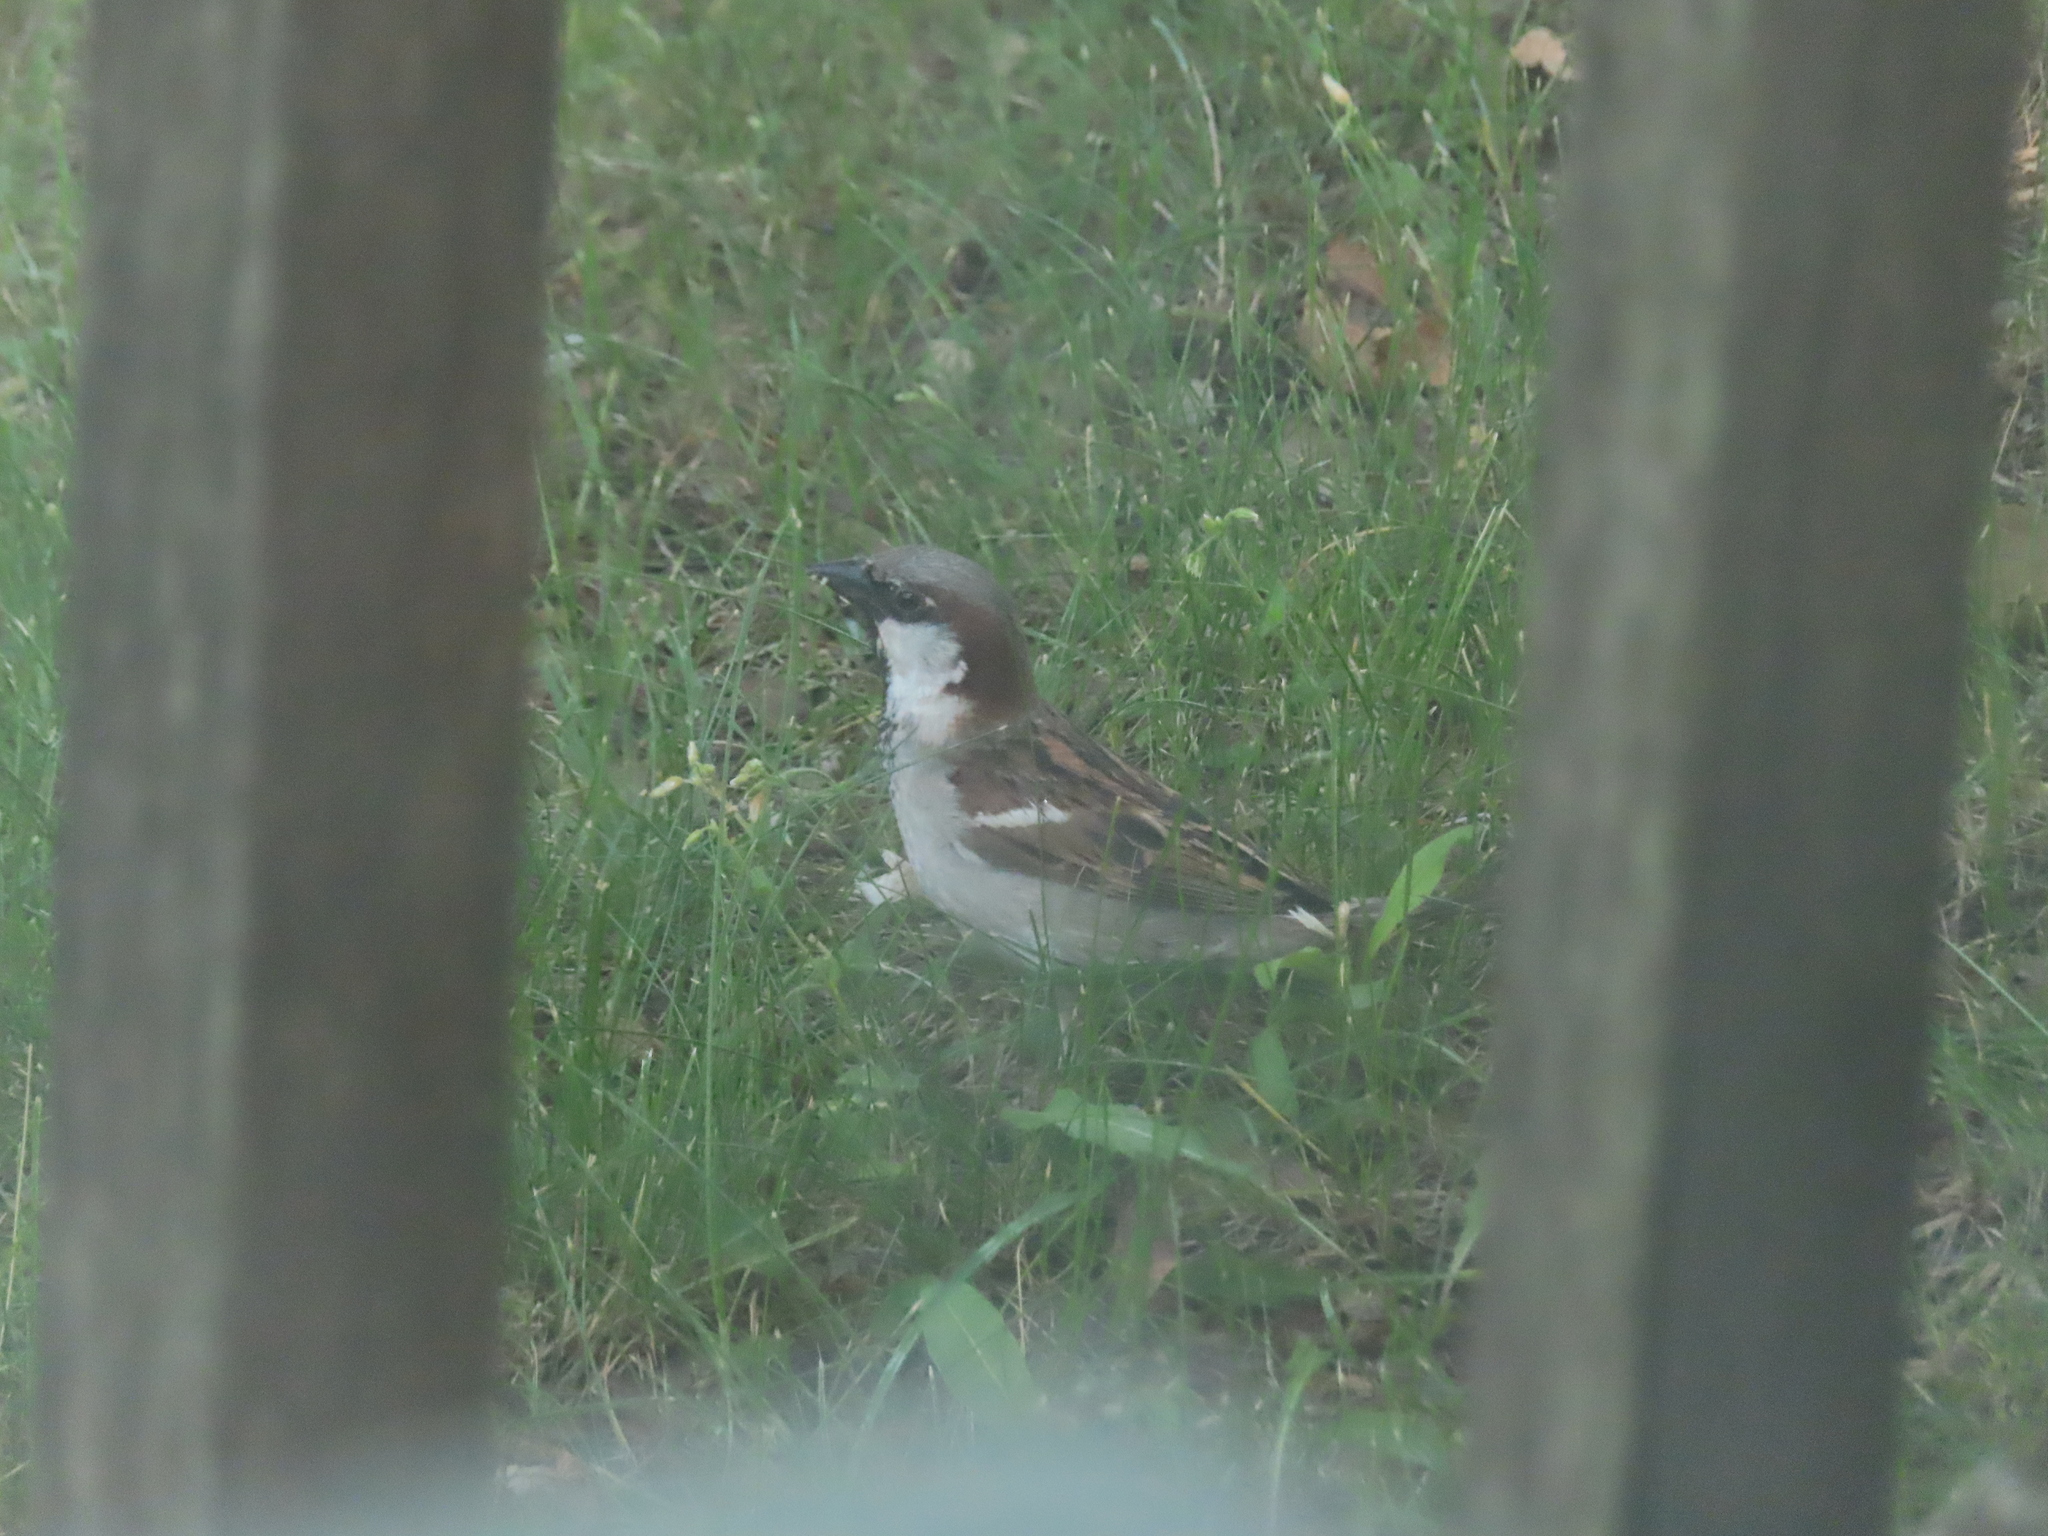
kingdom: Animalia
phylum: Chordata
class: Aves
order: Passeriformes
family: Passeridae
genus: Passer
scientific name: Passer domesticus
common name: House sparrow
